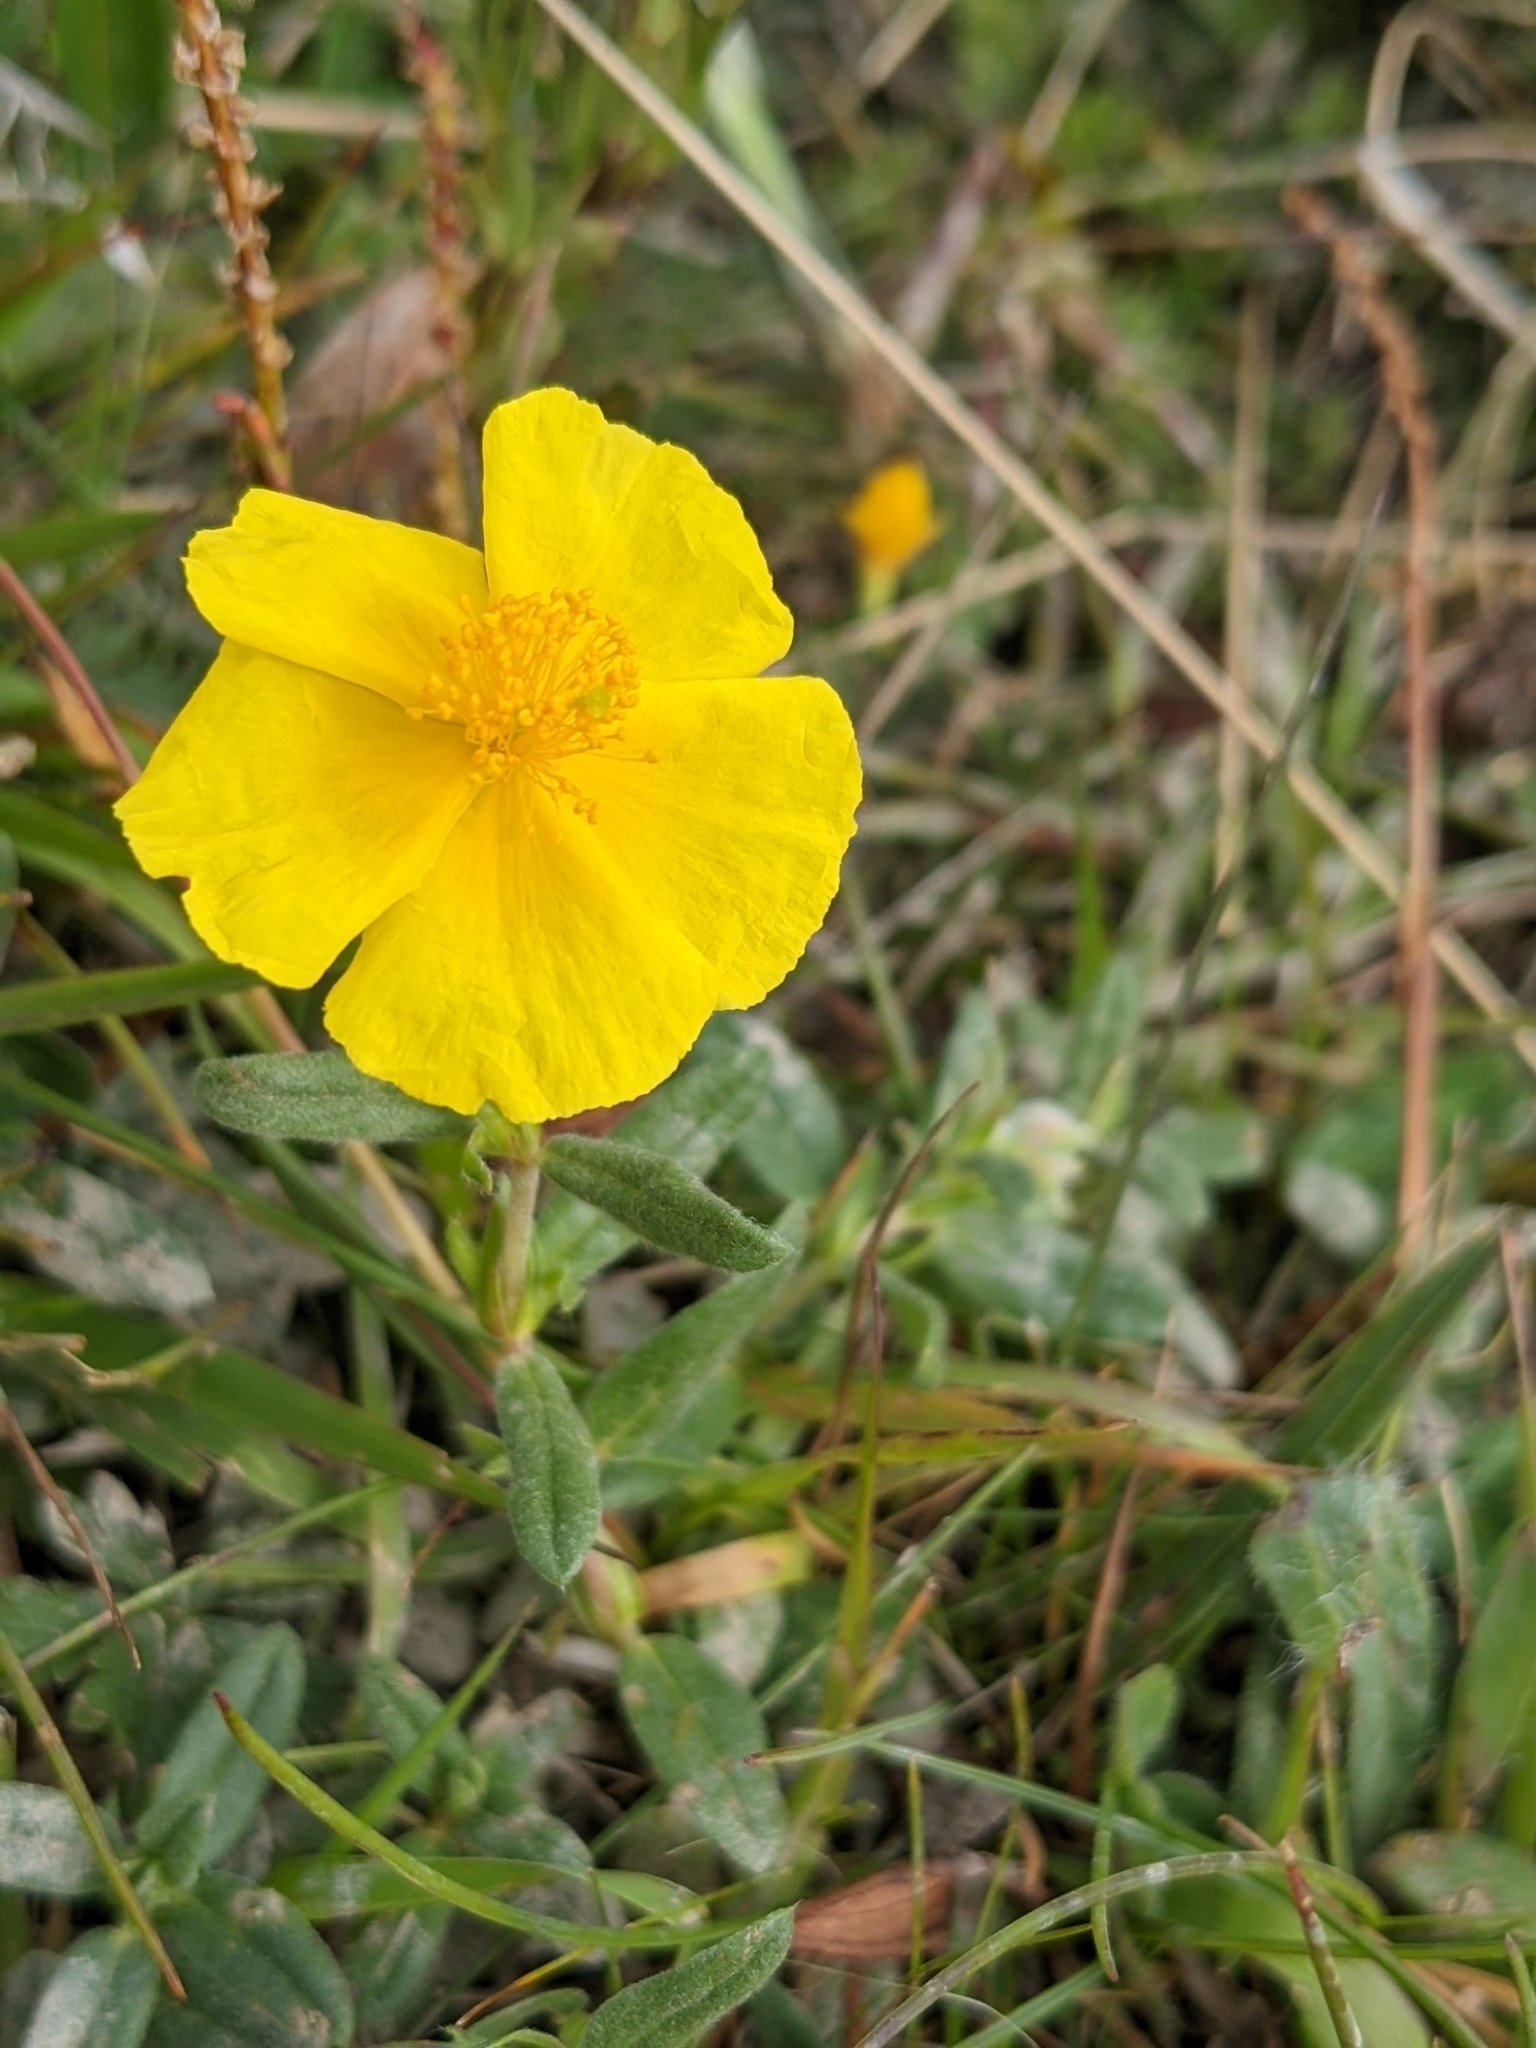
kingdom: Plantae
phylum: Tracheophyta
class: Magnoliopsida
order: Malvales
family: Cistaceae
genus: Helianthemum
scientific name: Helianthemum nummularium
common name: Common rock-rose
